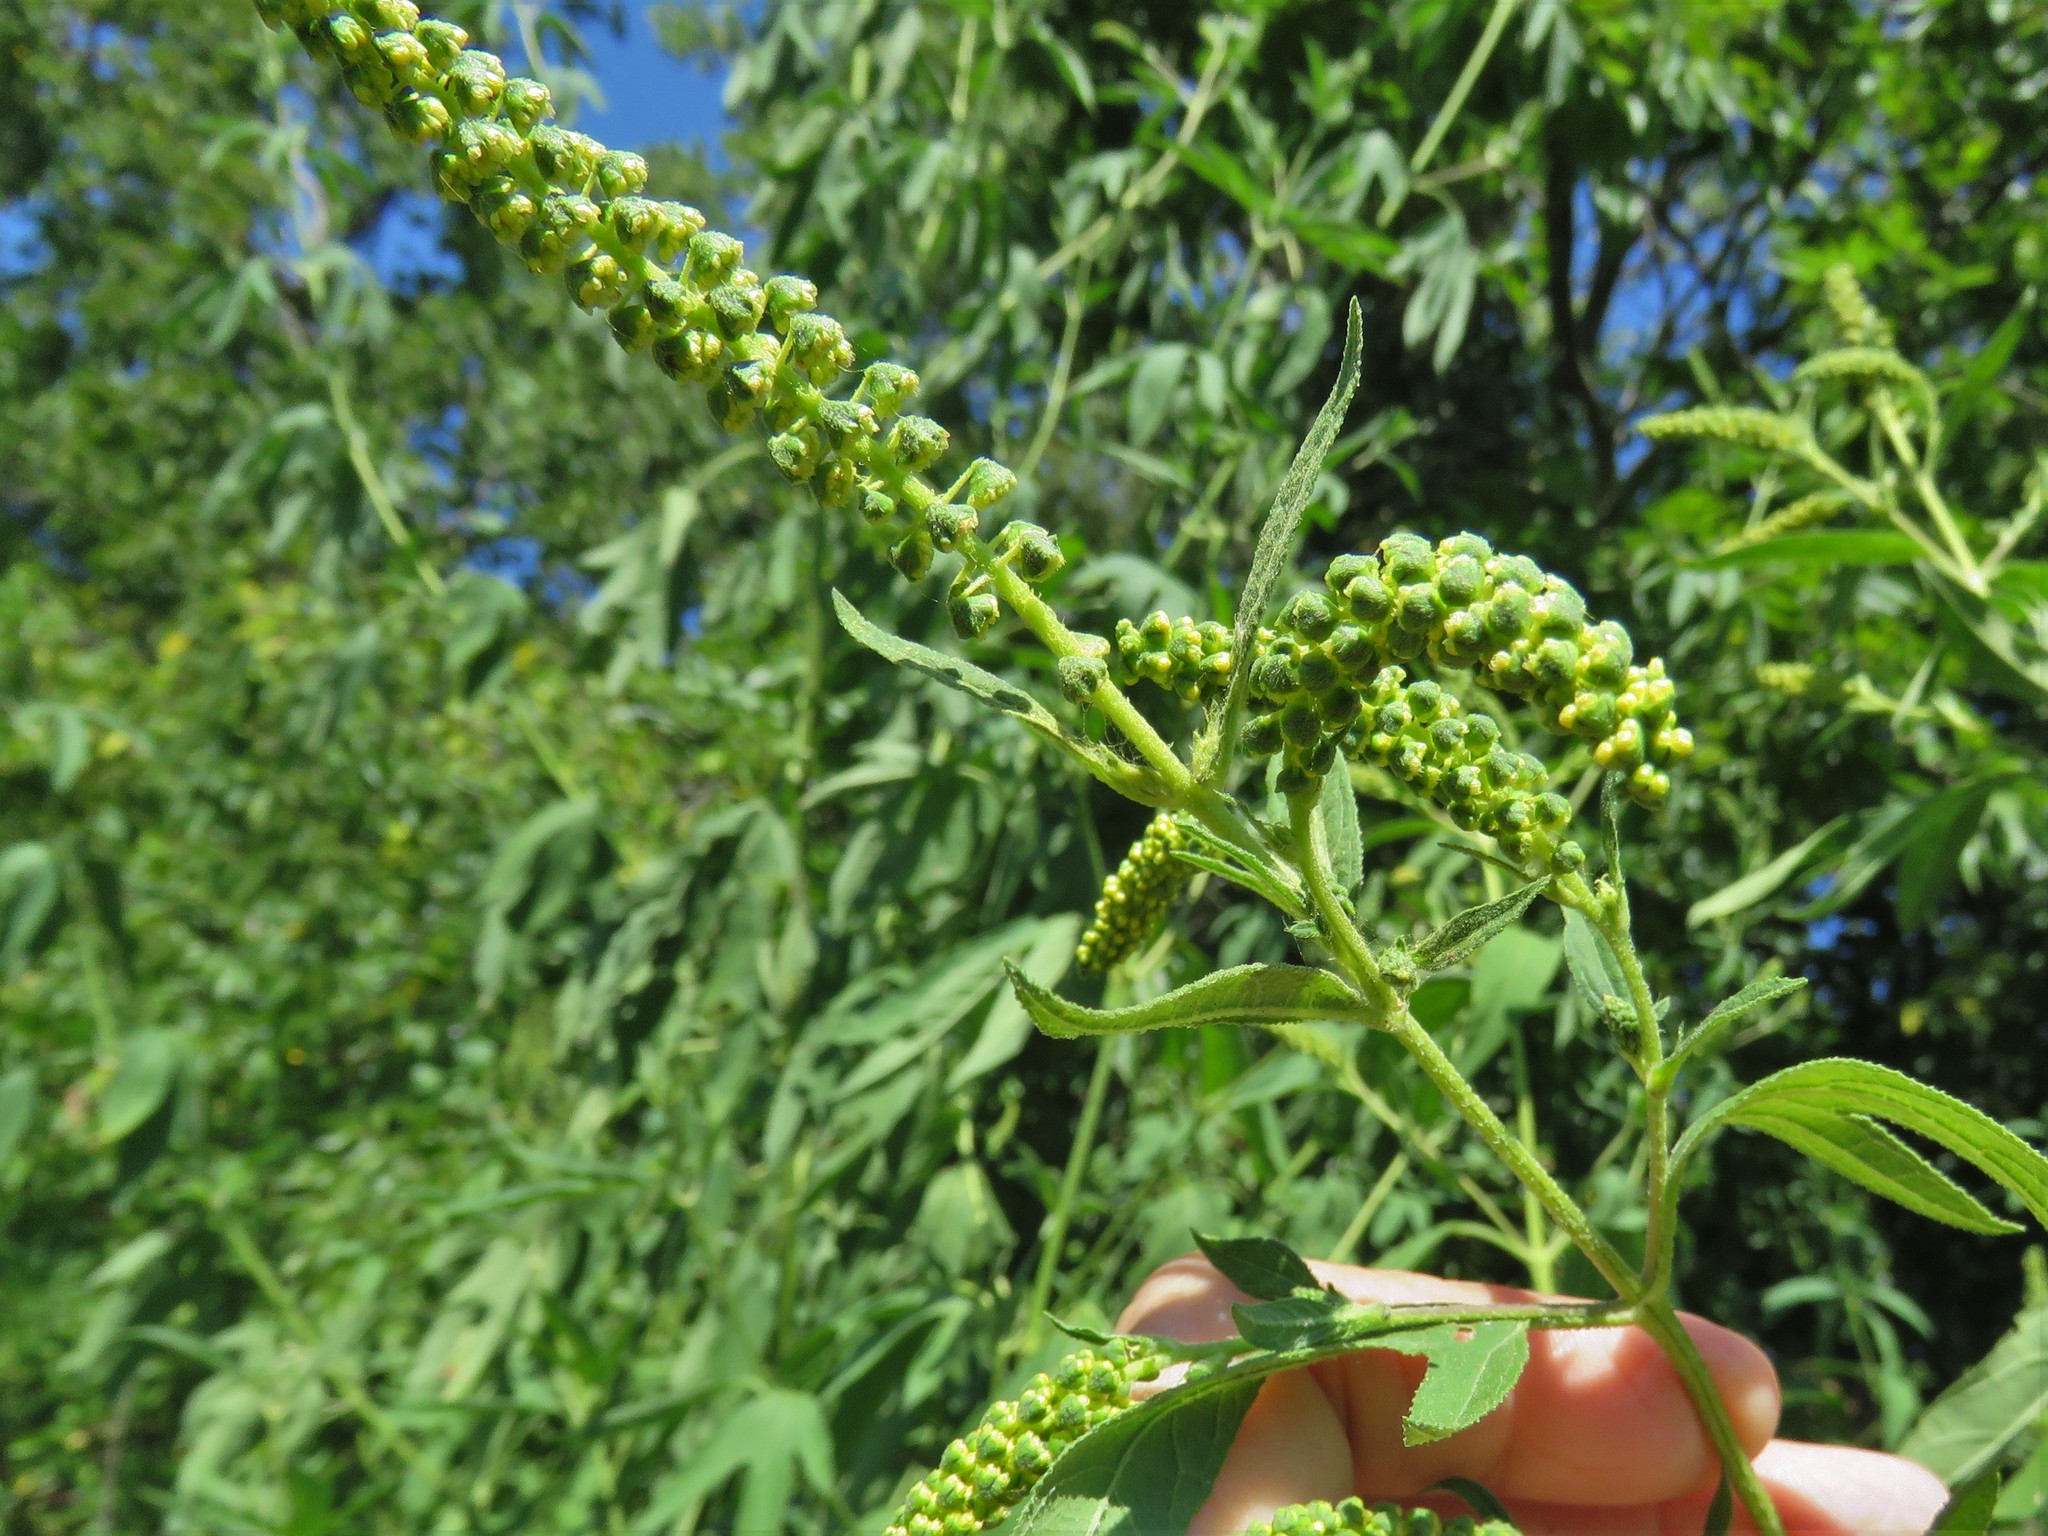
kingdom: Plantae
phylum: Tracheophyta
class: Magnoliopsida
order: Asterales
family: Asteraceae
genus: Ambrosia
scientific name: Ambrosia trifida
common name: Giant ragweed
